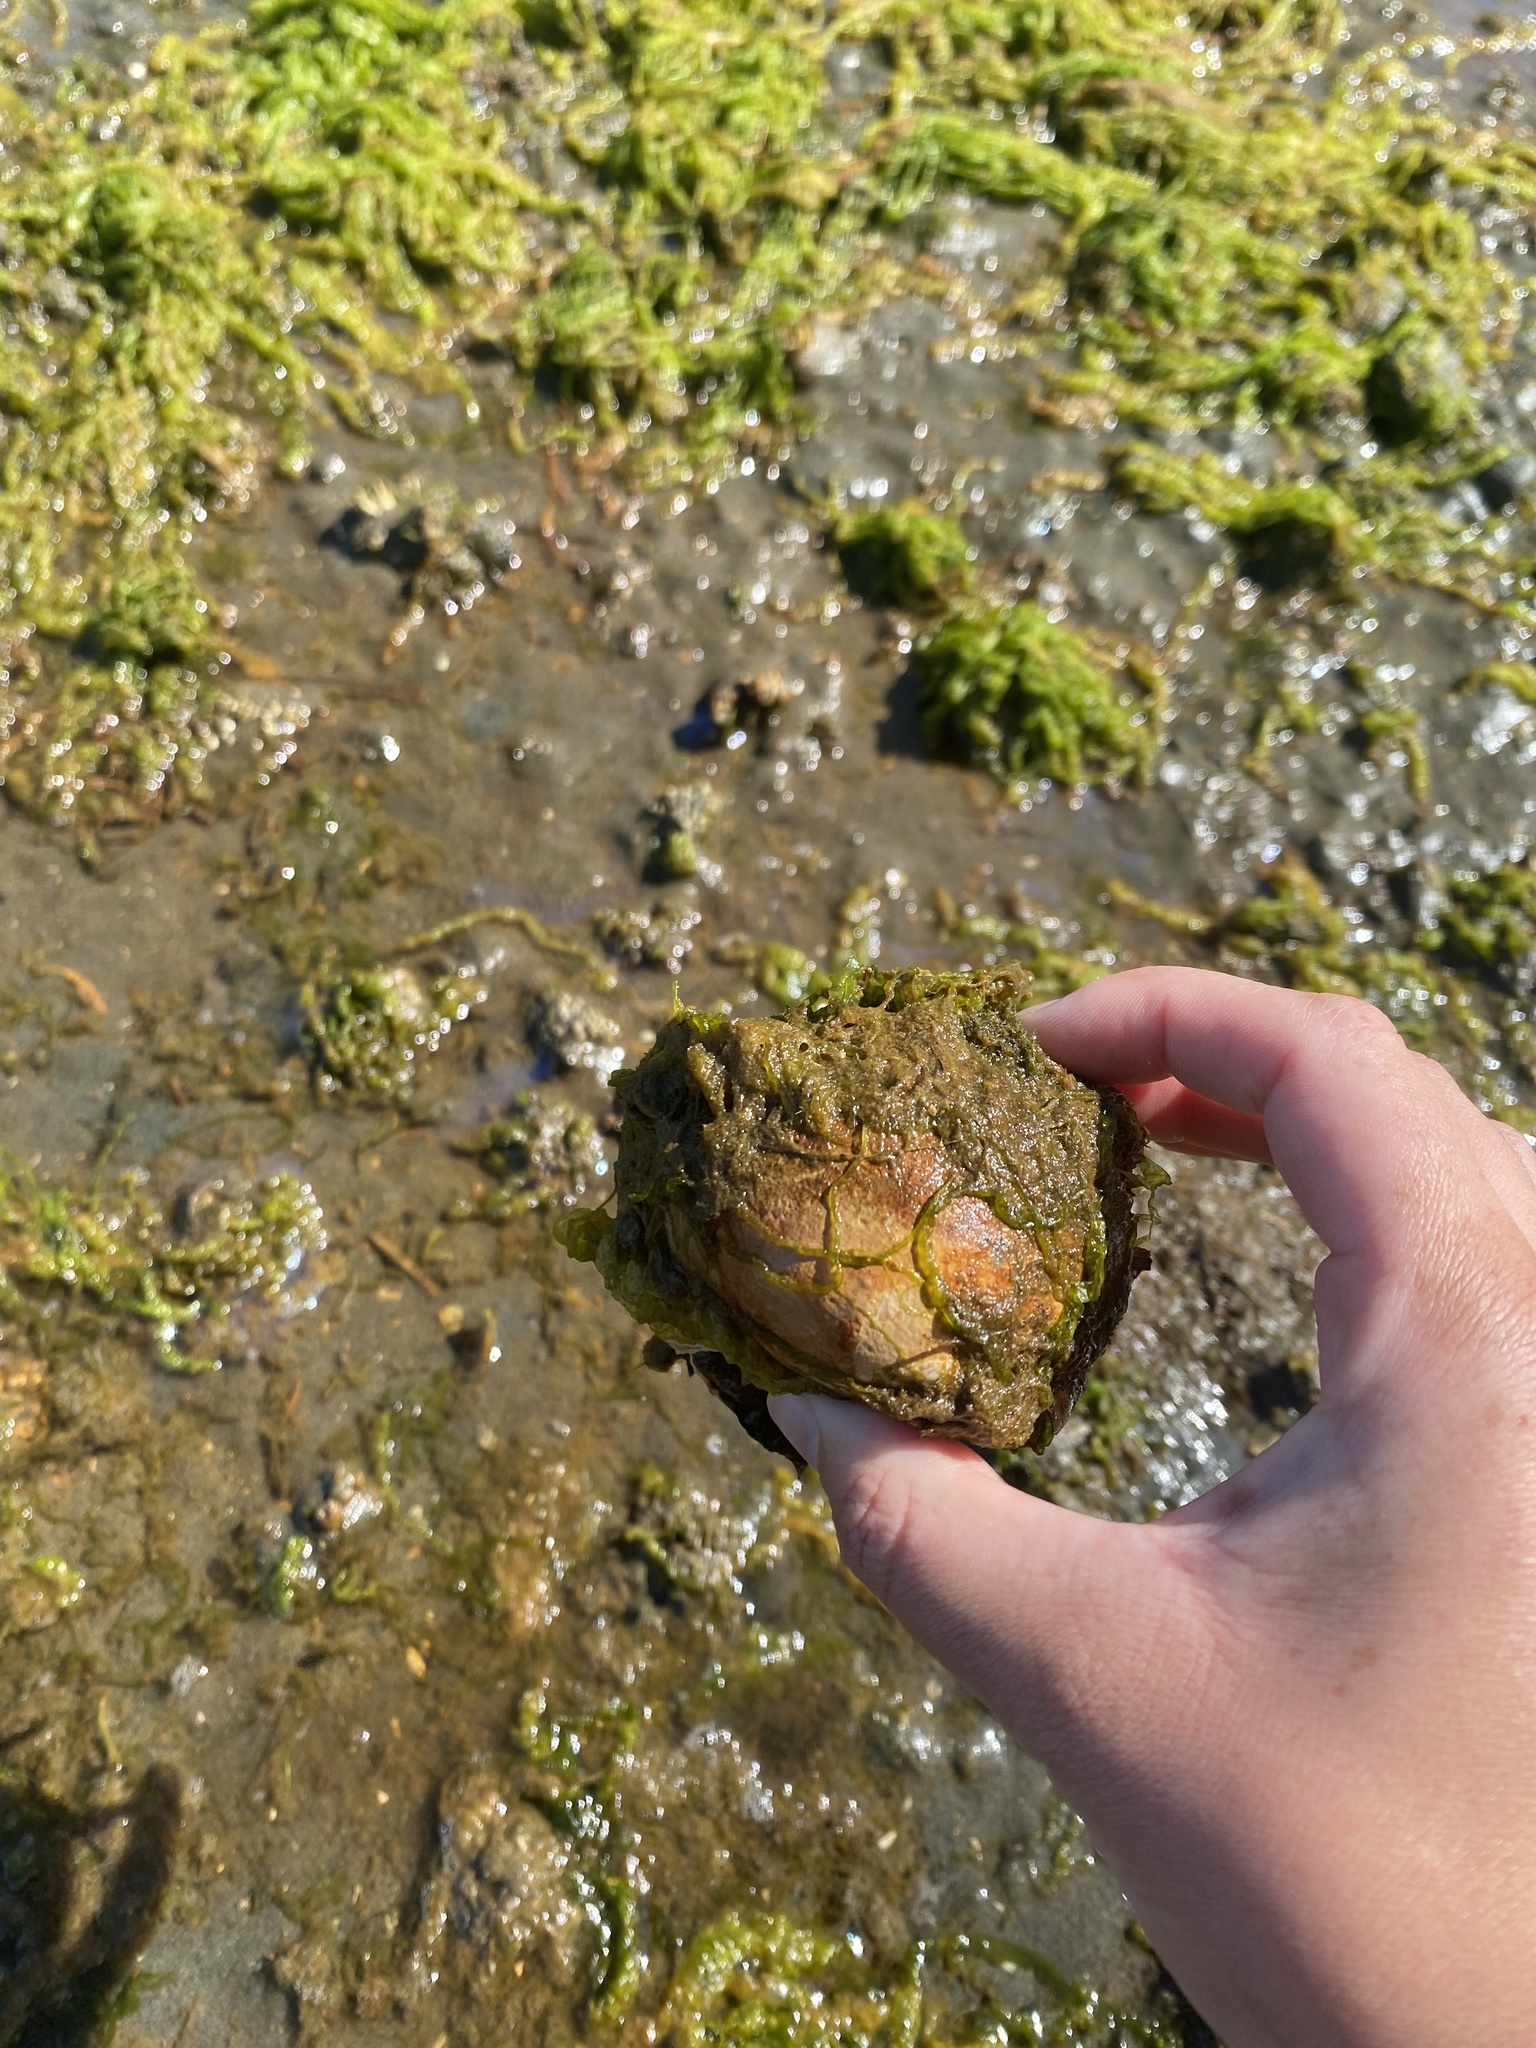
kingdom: Animalia
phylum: Mollusca
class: Gastropoda
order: Littorinimorpha
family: Naticidae
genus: Neverita
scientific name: Neverita lewisii
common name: Lewis' moonsnail
